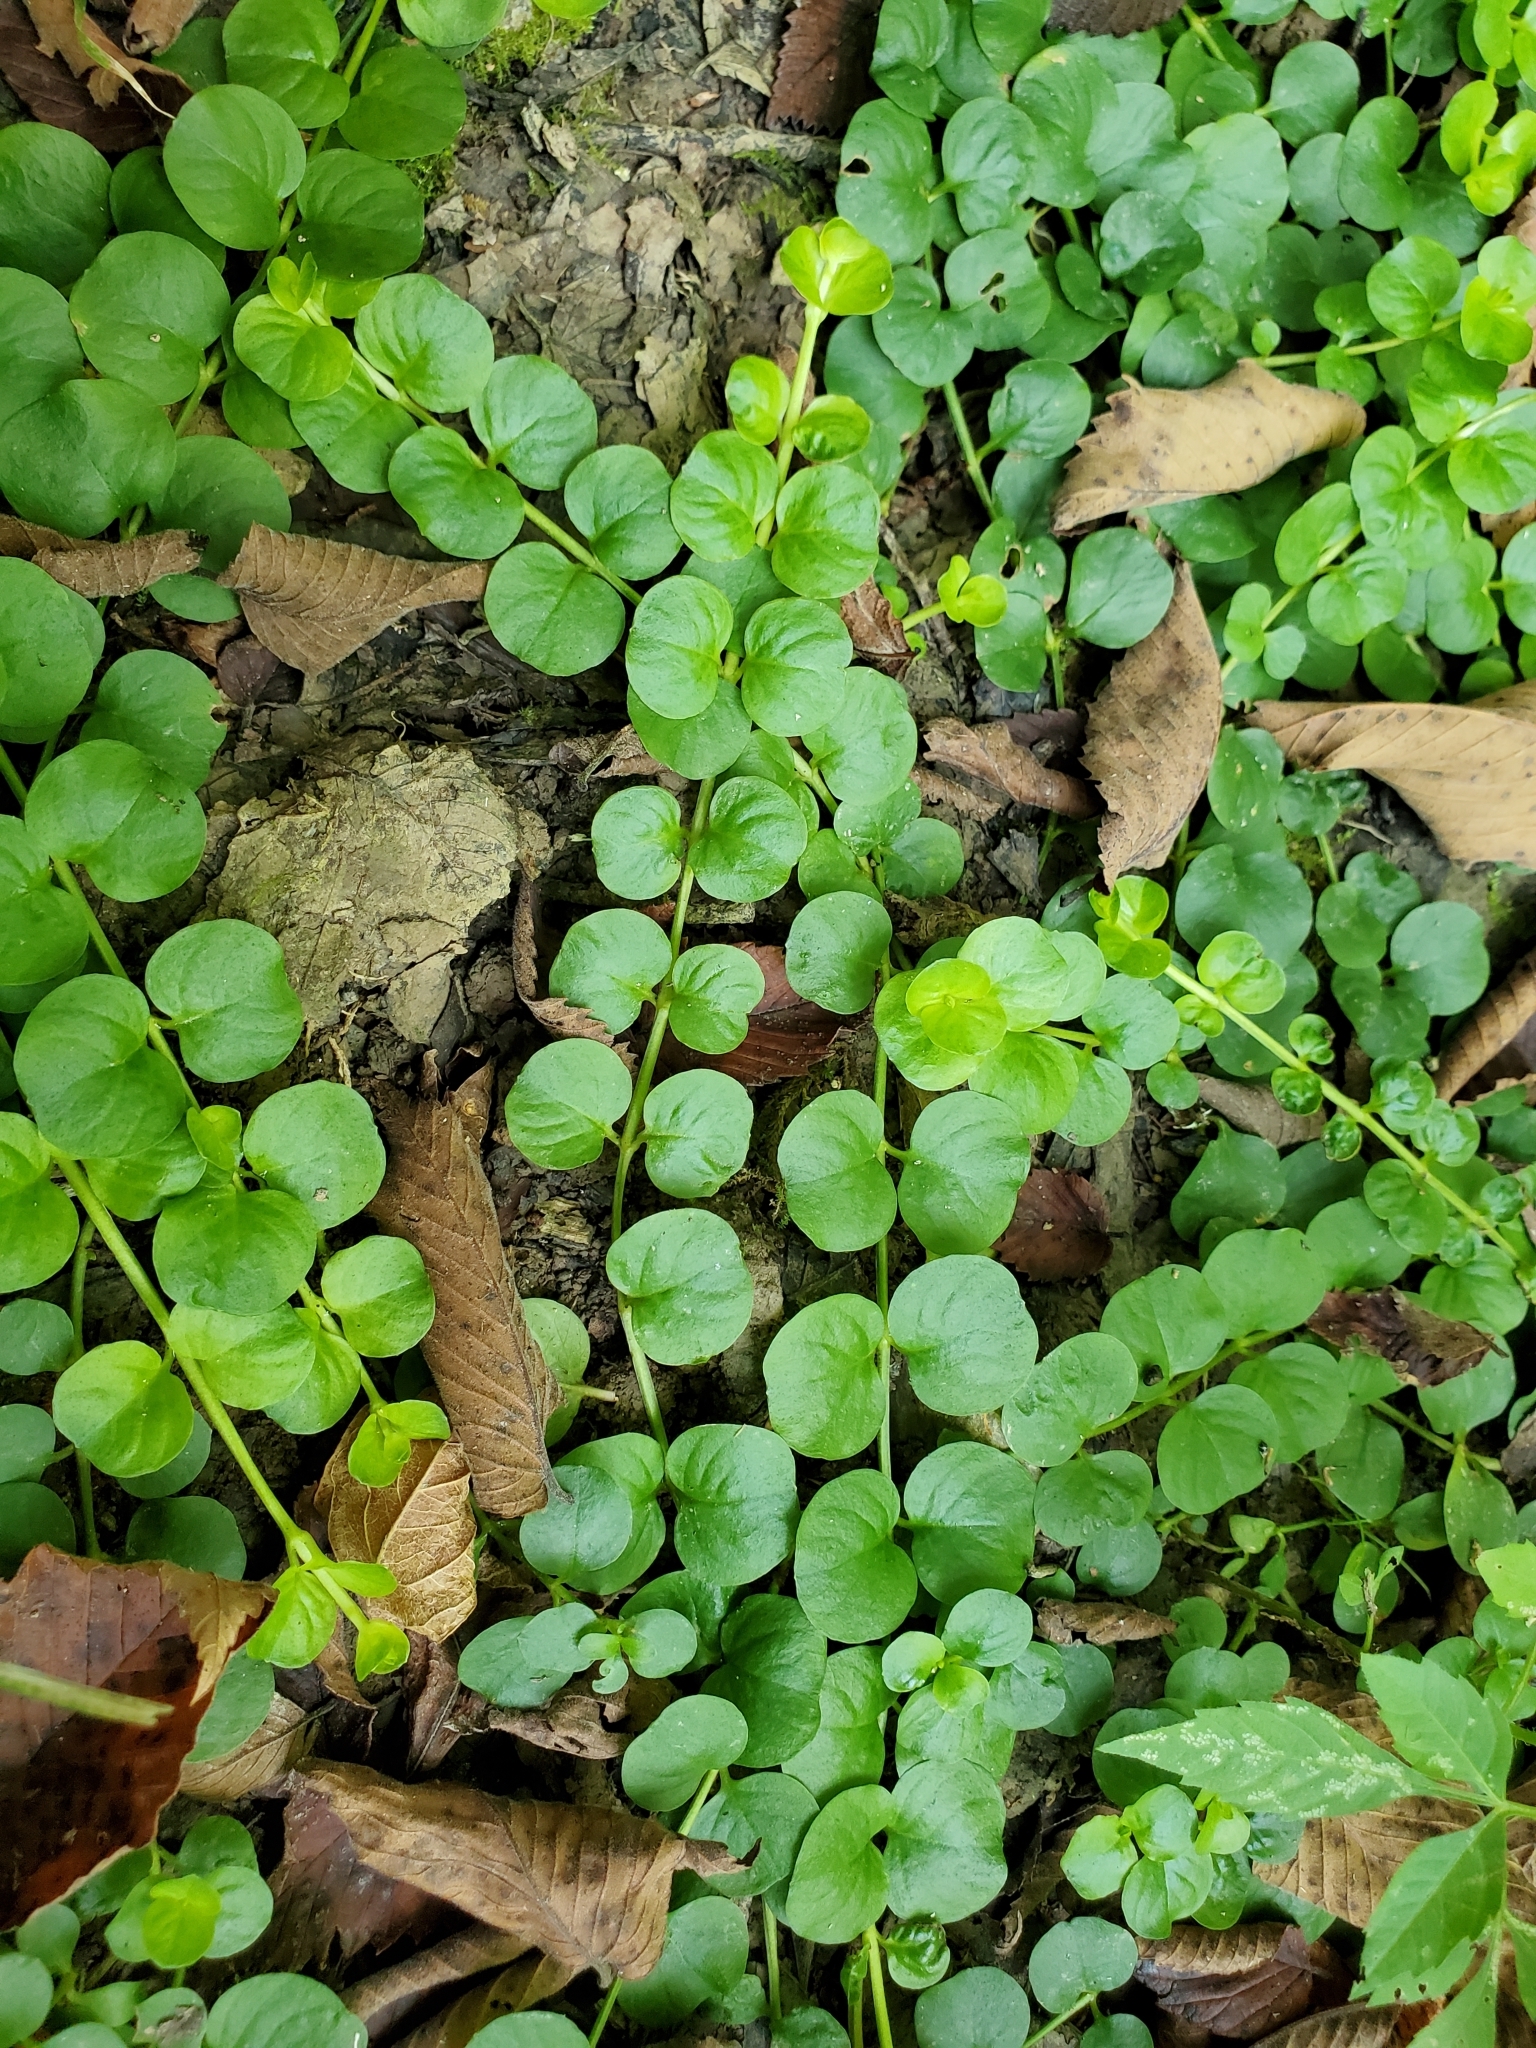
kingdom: Plantae
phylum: Tracheophyta
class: Magnoliopsida
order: Ericales
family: Primulaceae
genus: Lysimachia
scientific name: Lysimachia nummularia
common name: Moneywort
